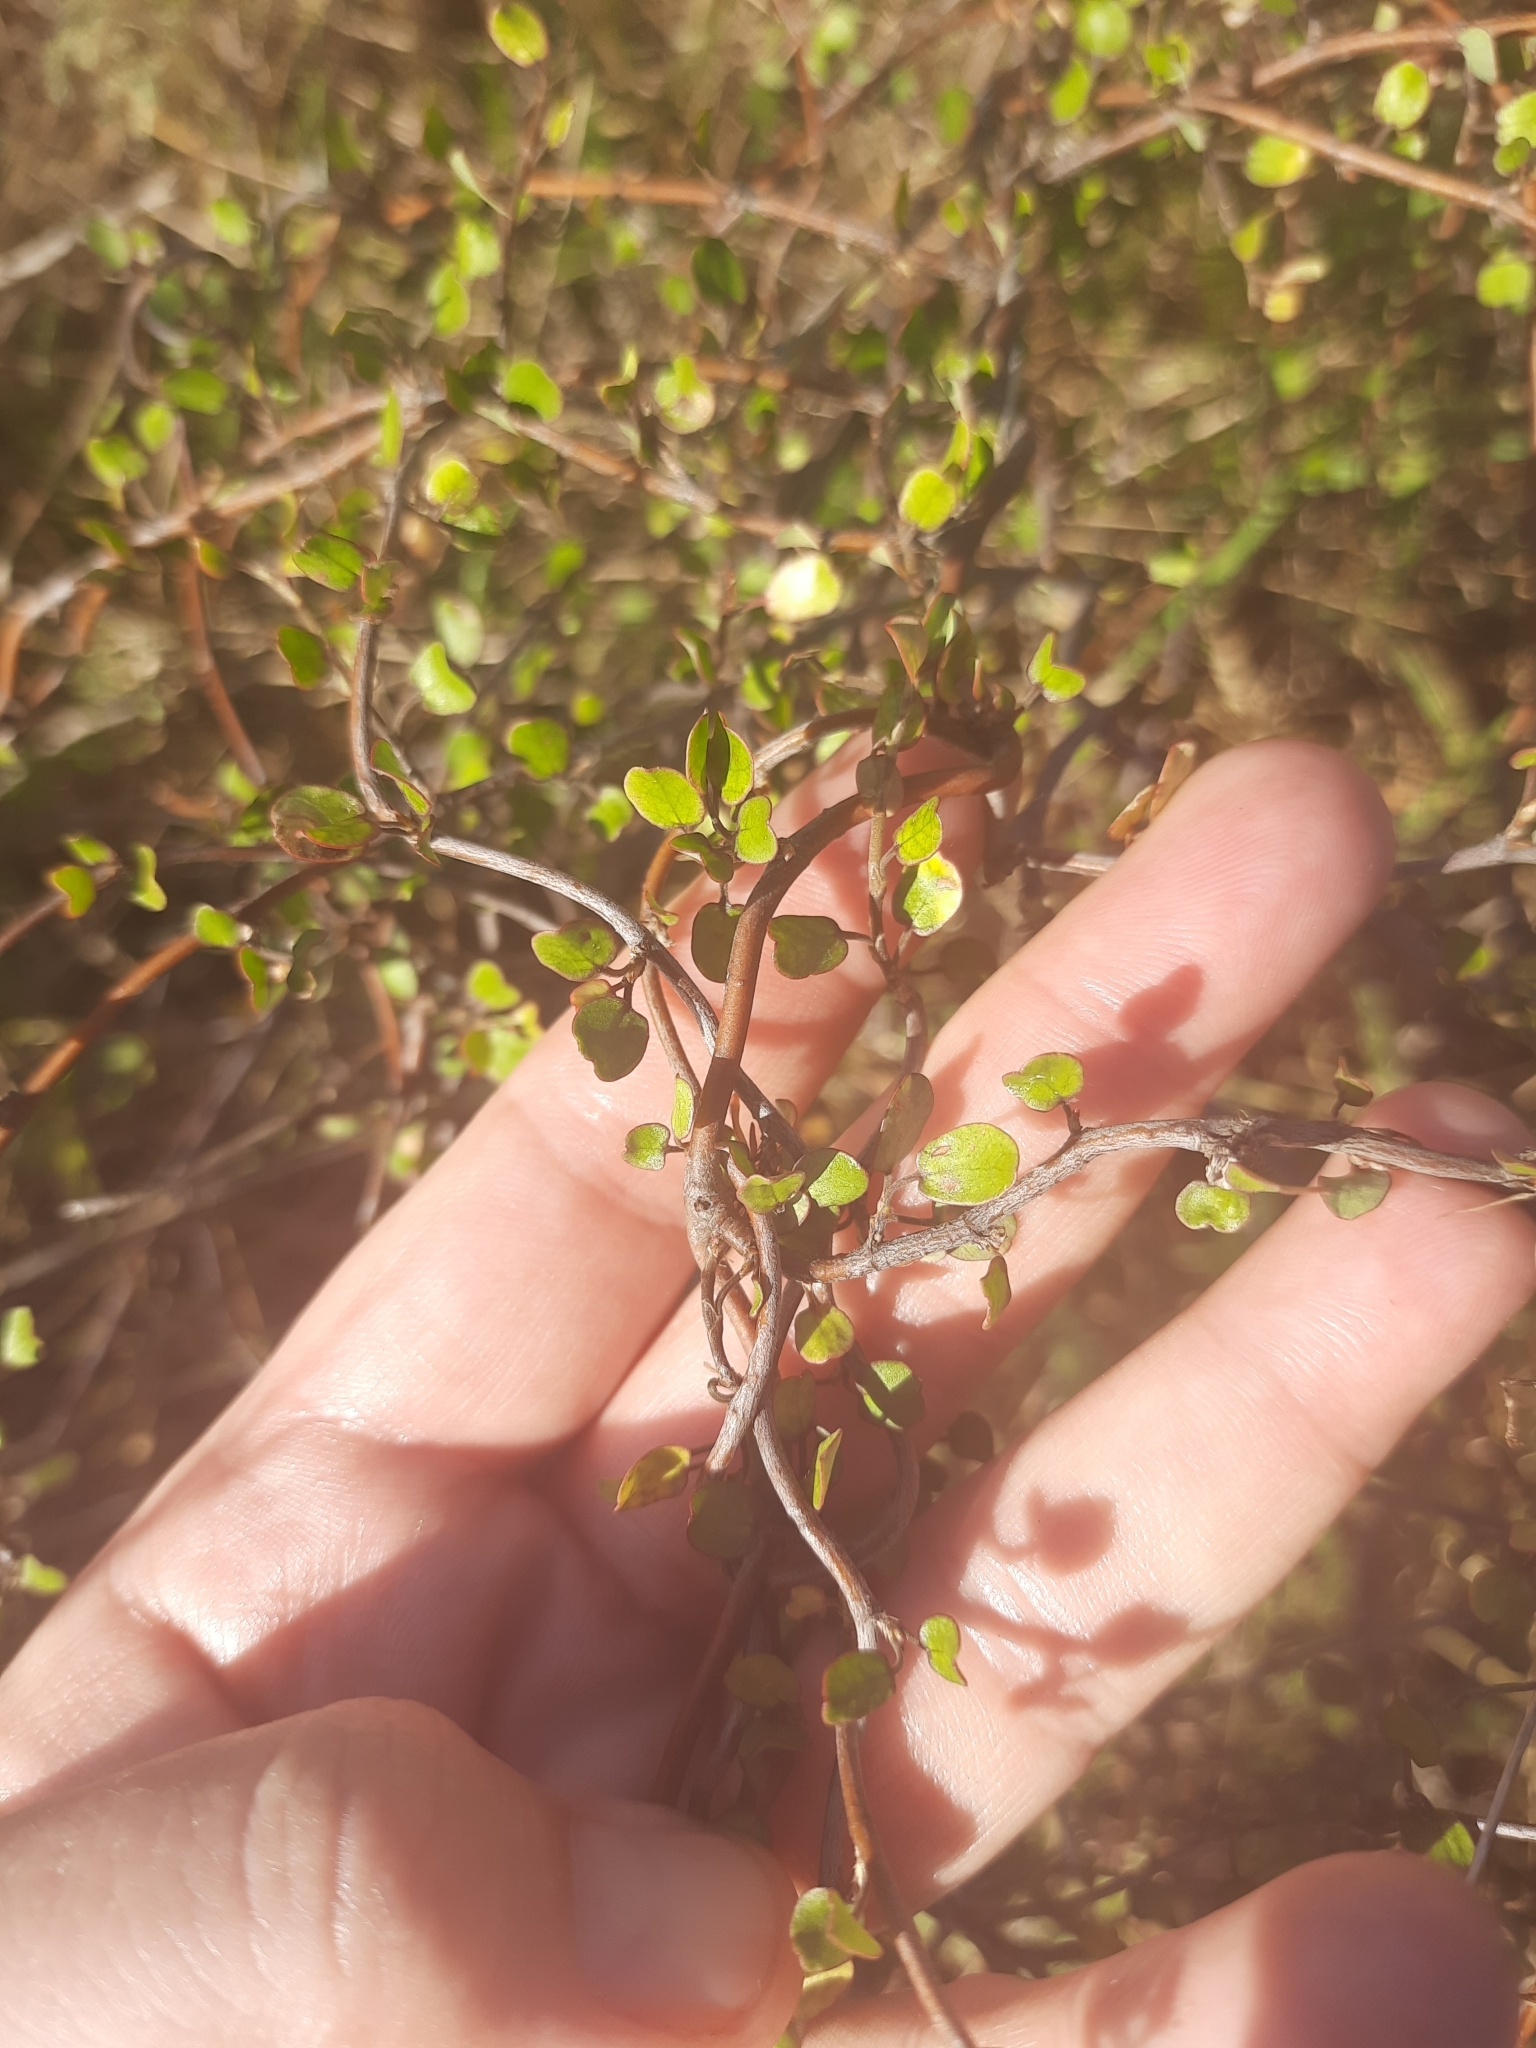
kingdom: Plantae
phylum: Tracheophyta
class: Magnoliopsida
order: Caryophyllales
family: Polygonaceae
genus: Muehlenbeckia
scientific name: Muehlenbeckia complexa
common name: Wireplant
